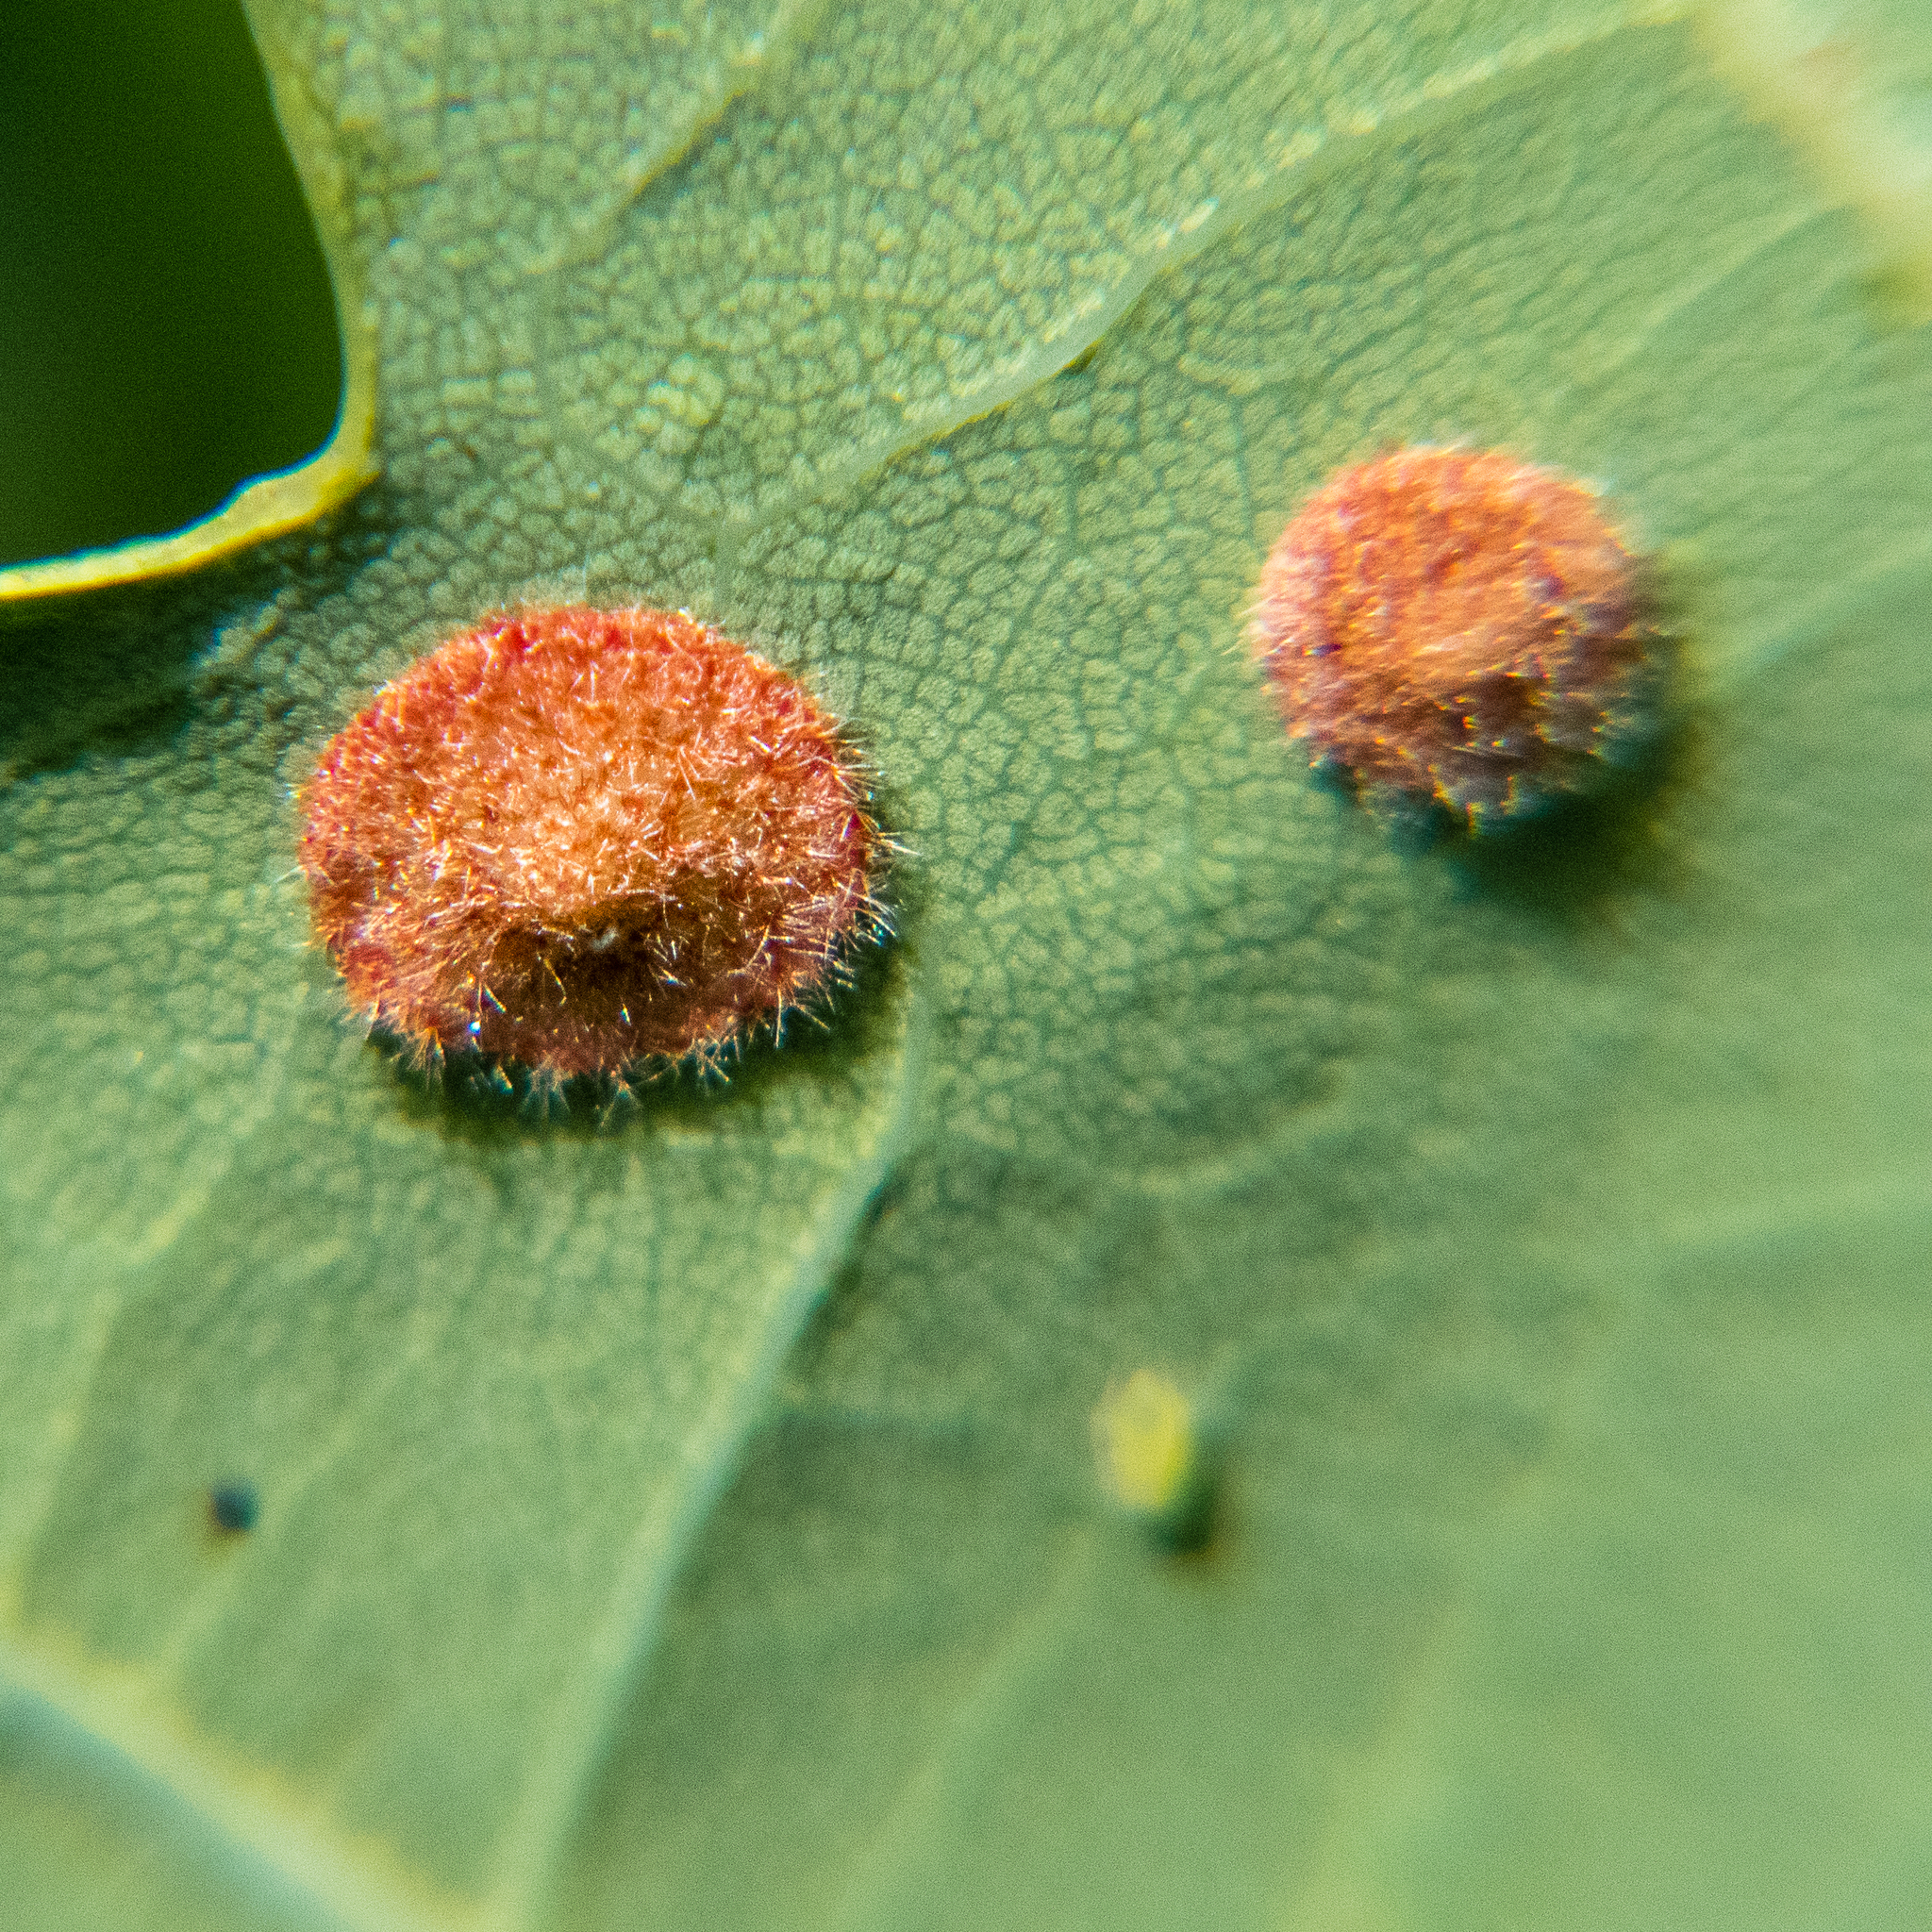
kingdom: Animalia
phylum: Arthropoda
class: Insecta
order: Hymenoptera
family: Cynipidae
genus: Neuroterus
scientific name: Neuroterus quercusbaccarum
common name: Common spangle gall
